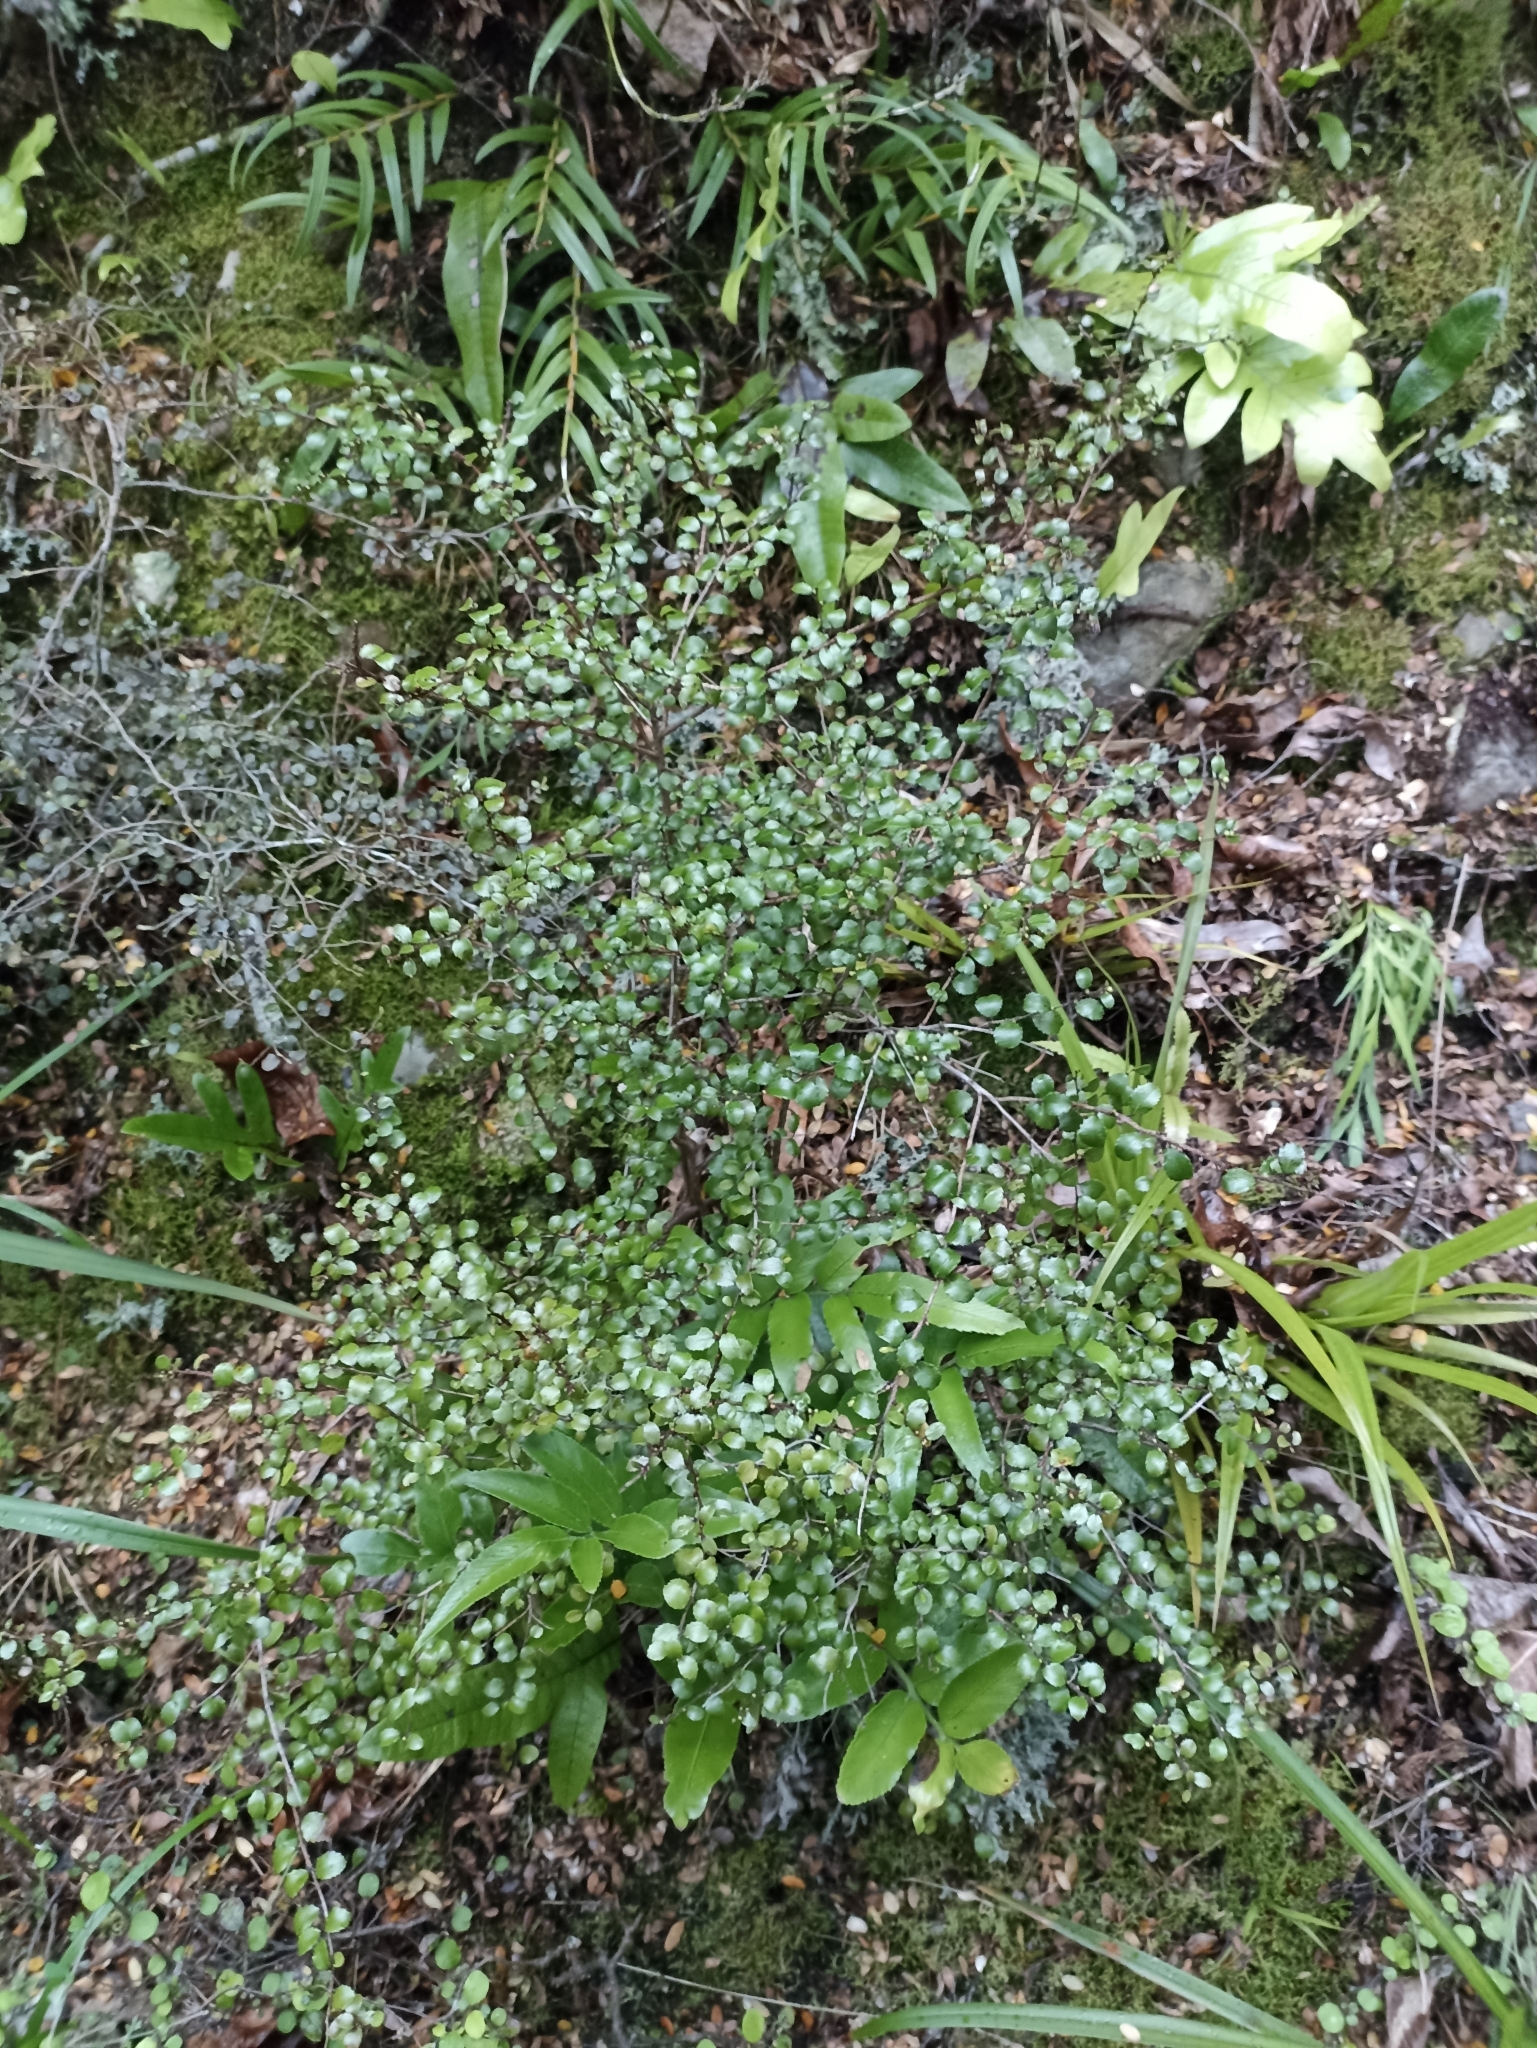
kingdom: Plantae
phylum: Tracheophyta
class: Magnoliopsida
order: Ericales
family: Ericaceae
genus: Gaultheria
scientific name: Gaultheria antipoda
